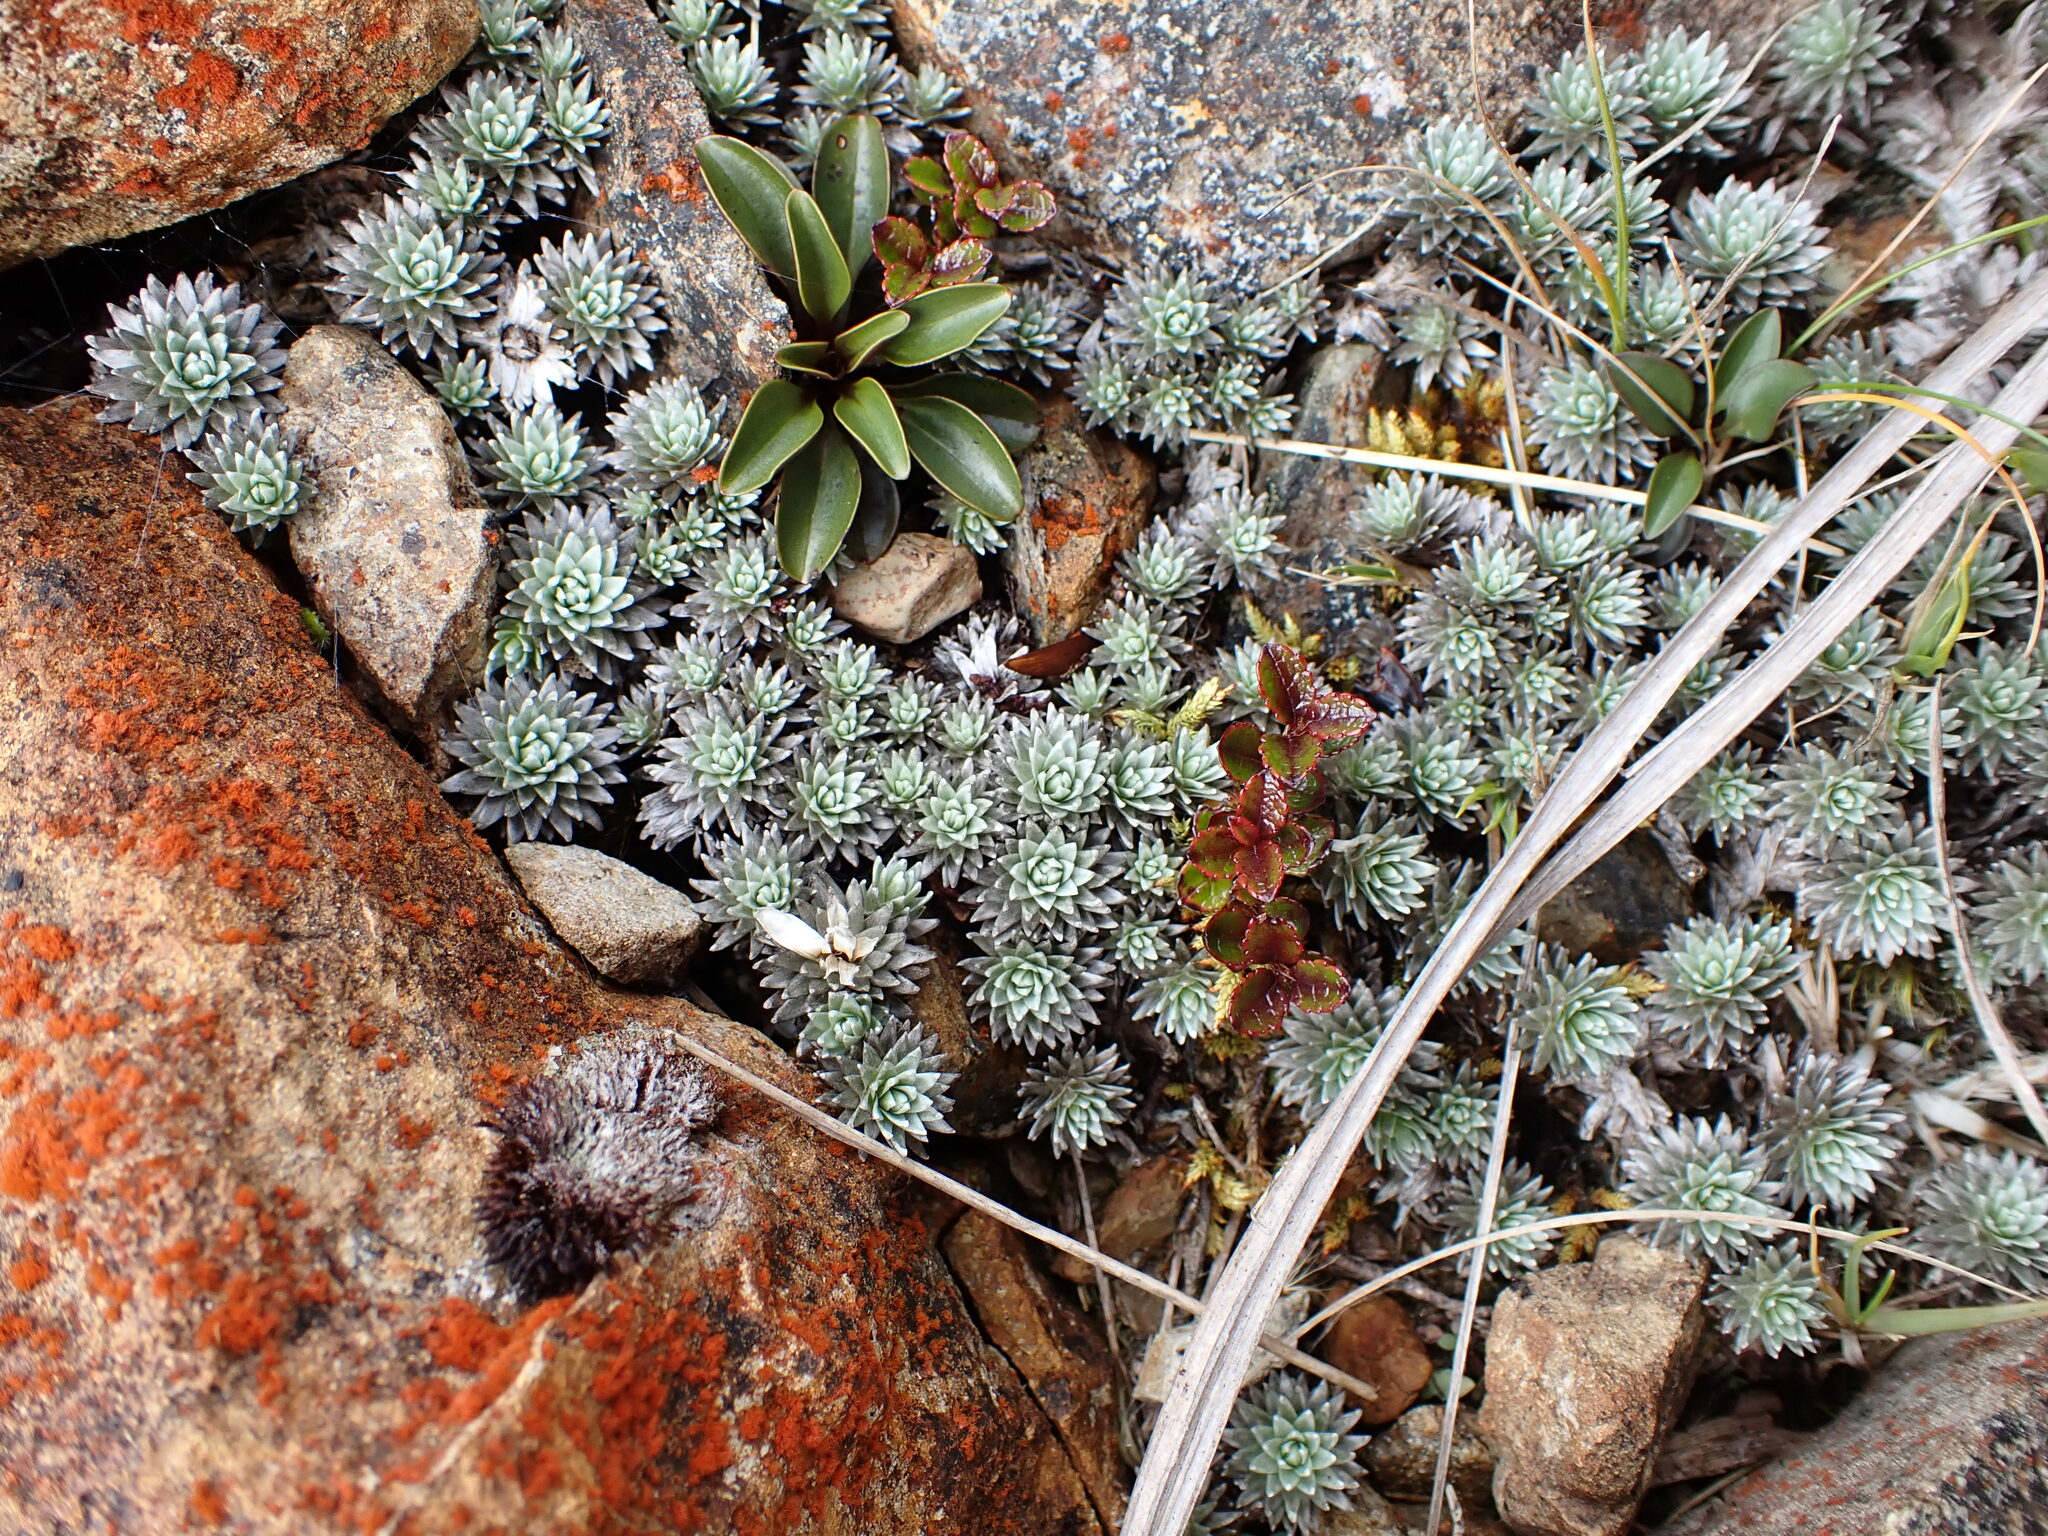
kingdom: Plantae
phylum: Tracheophyta
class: Magnoliopsida
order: Asterales
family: Asteraceae
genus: Raoulia
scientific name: Raoulia grandiflora
